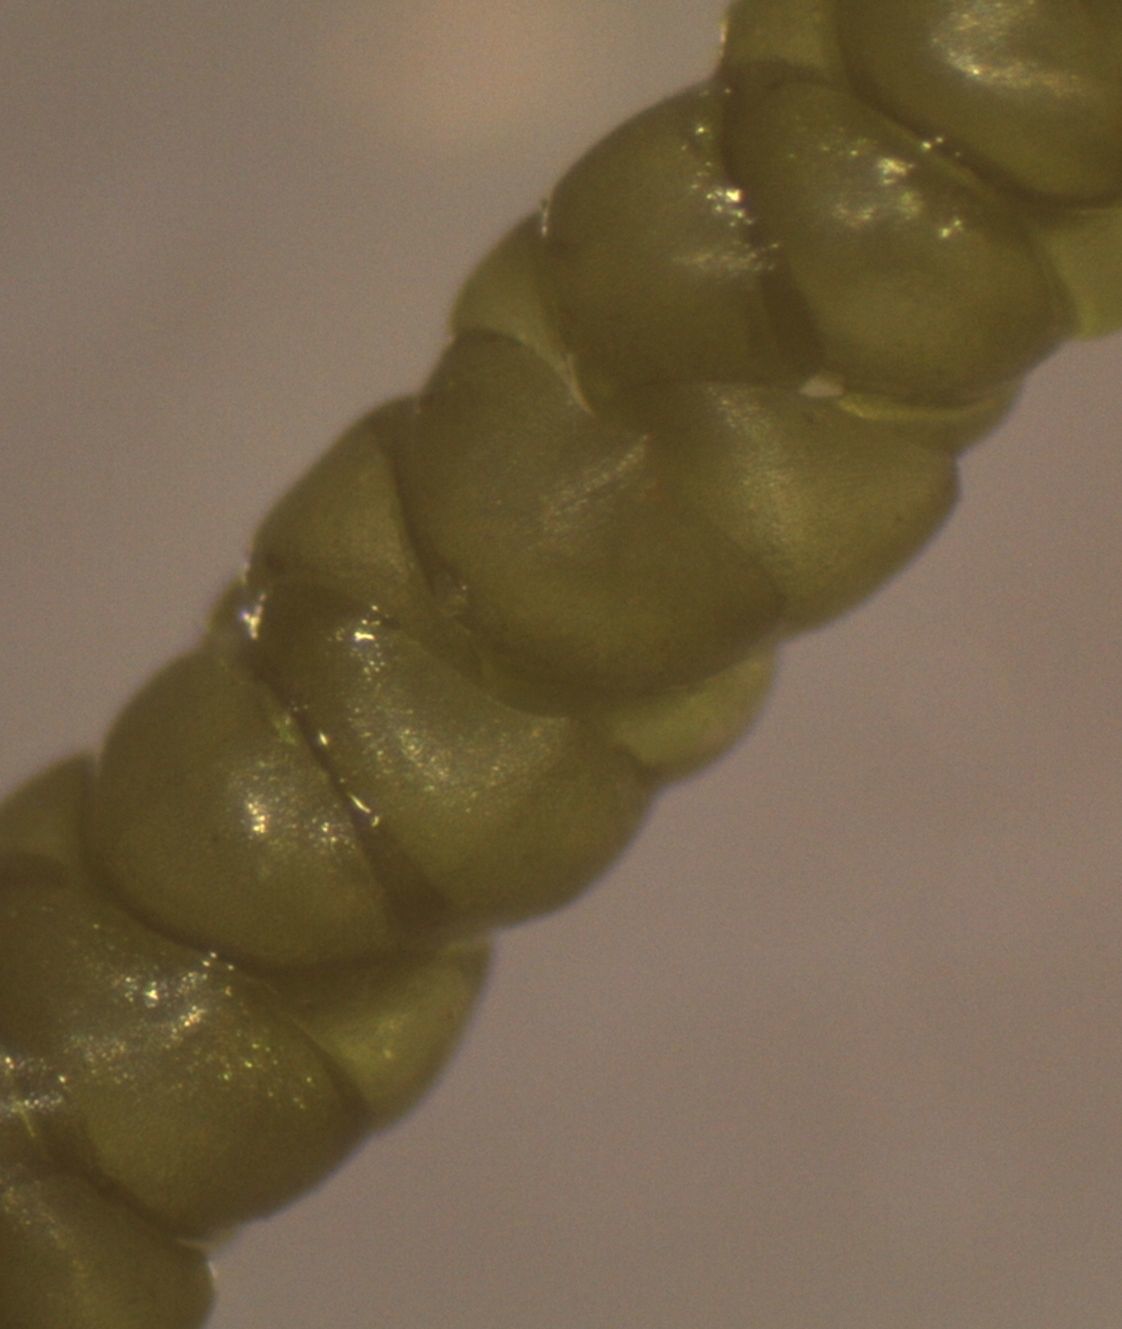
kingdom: Plantae
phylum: Bryophyta
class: Bryopsida
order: Hypnales
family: Lembophyllaceae
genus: Lembophyllum
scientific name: Lembophyllum divulsum
